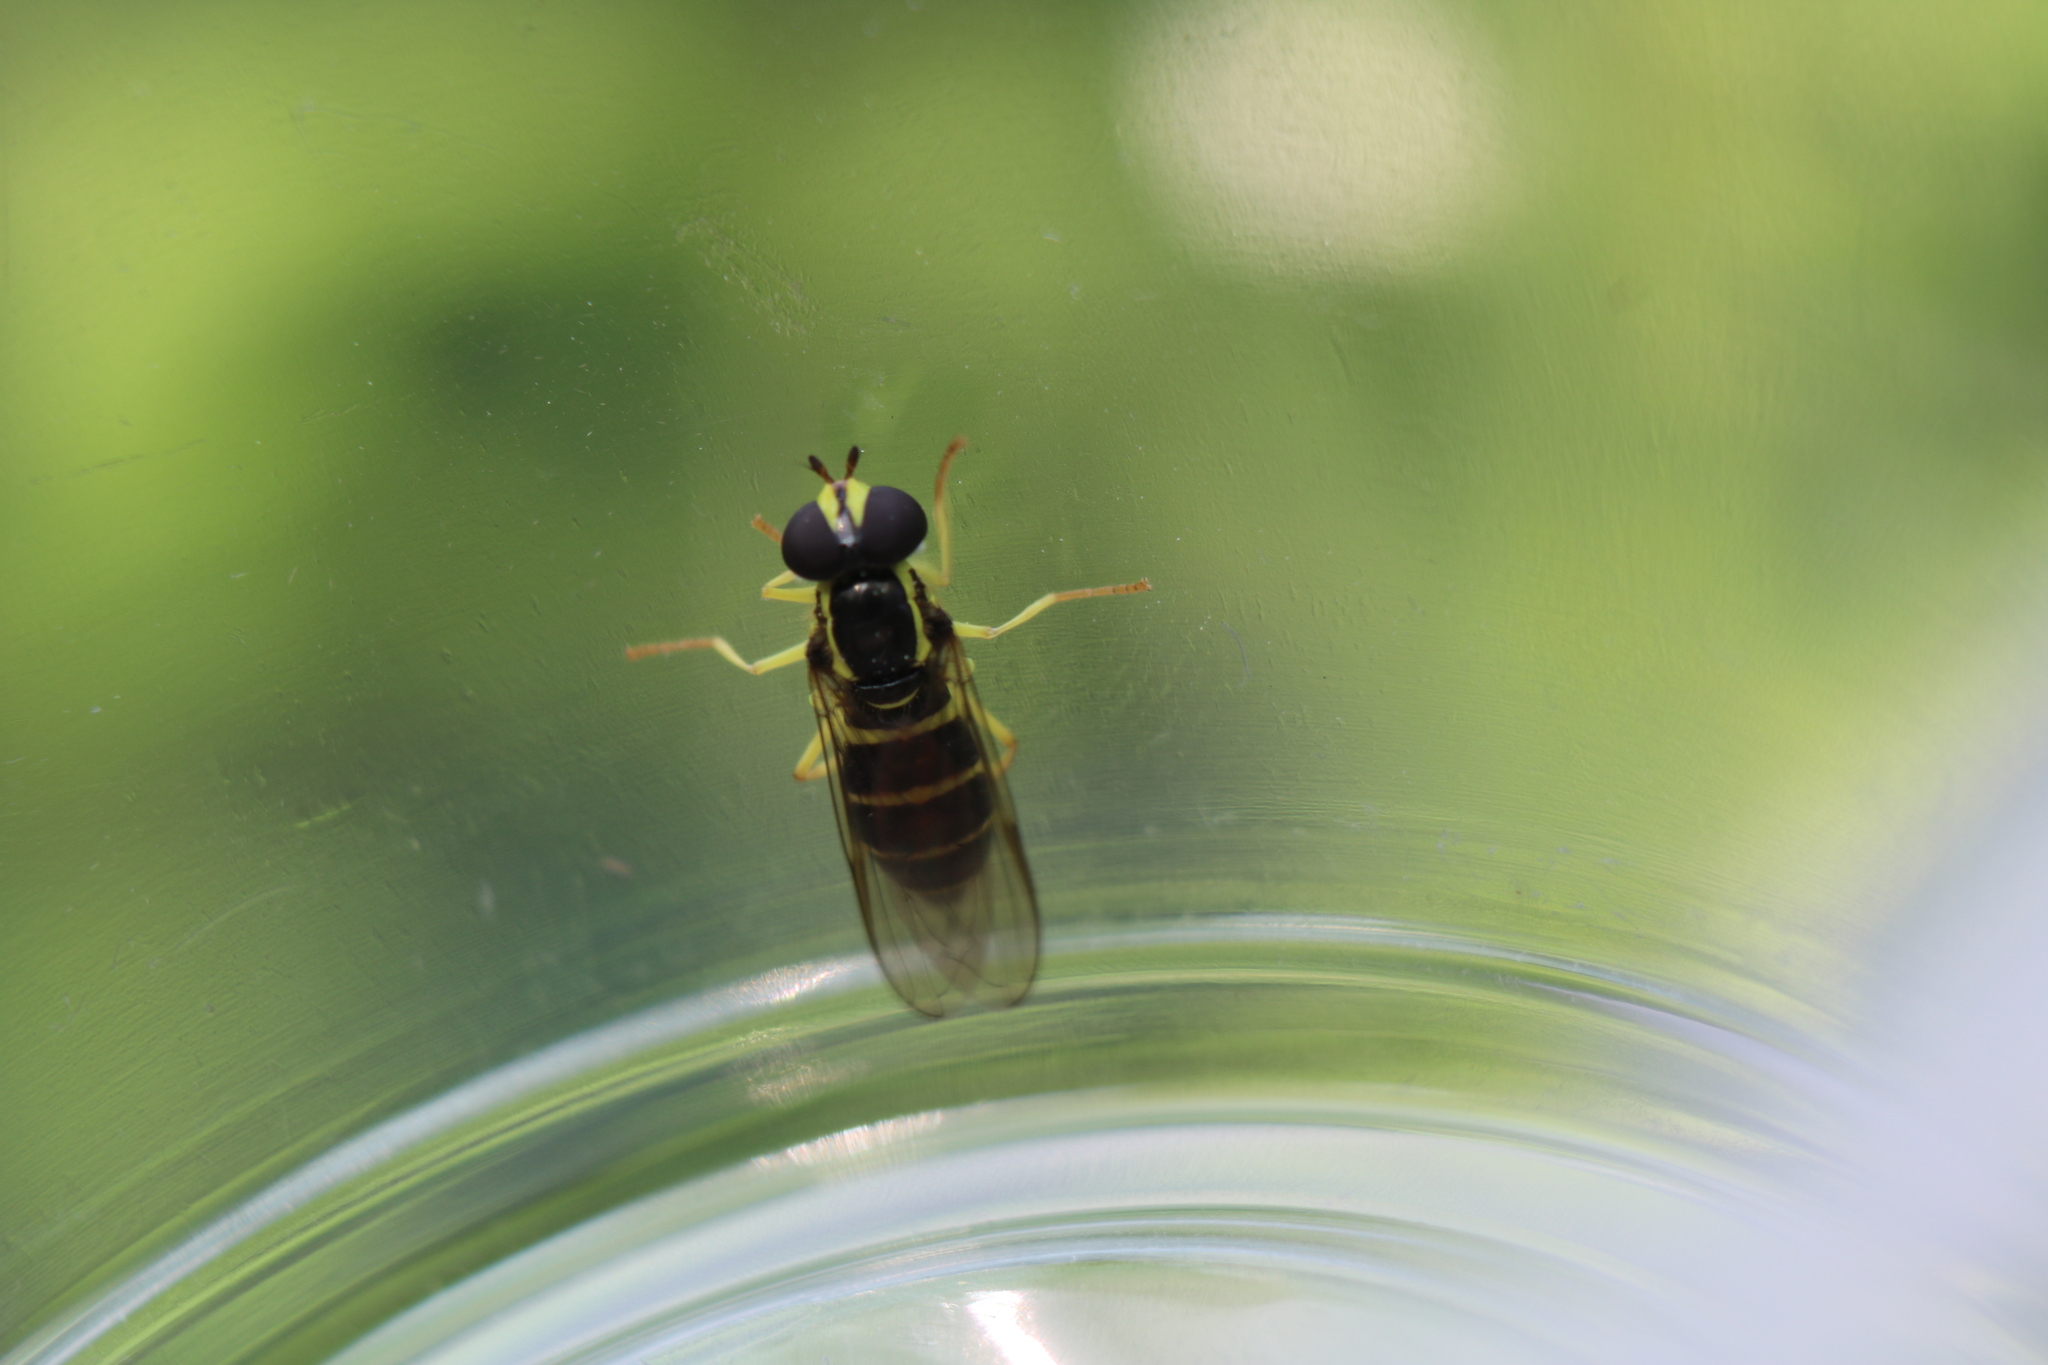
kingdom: Animalia
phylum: Arthropoda
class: Insecta
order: Diptera
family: Syrphidae
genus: Philhelius
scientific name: Philhelius flavipes
